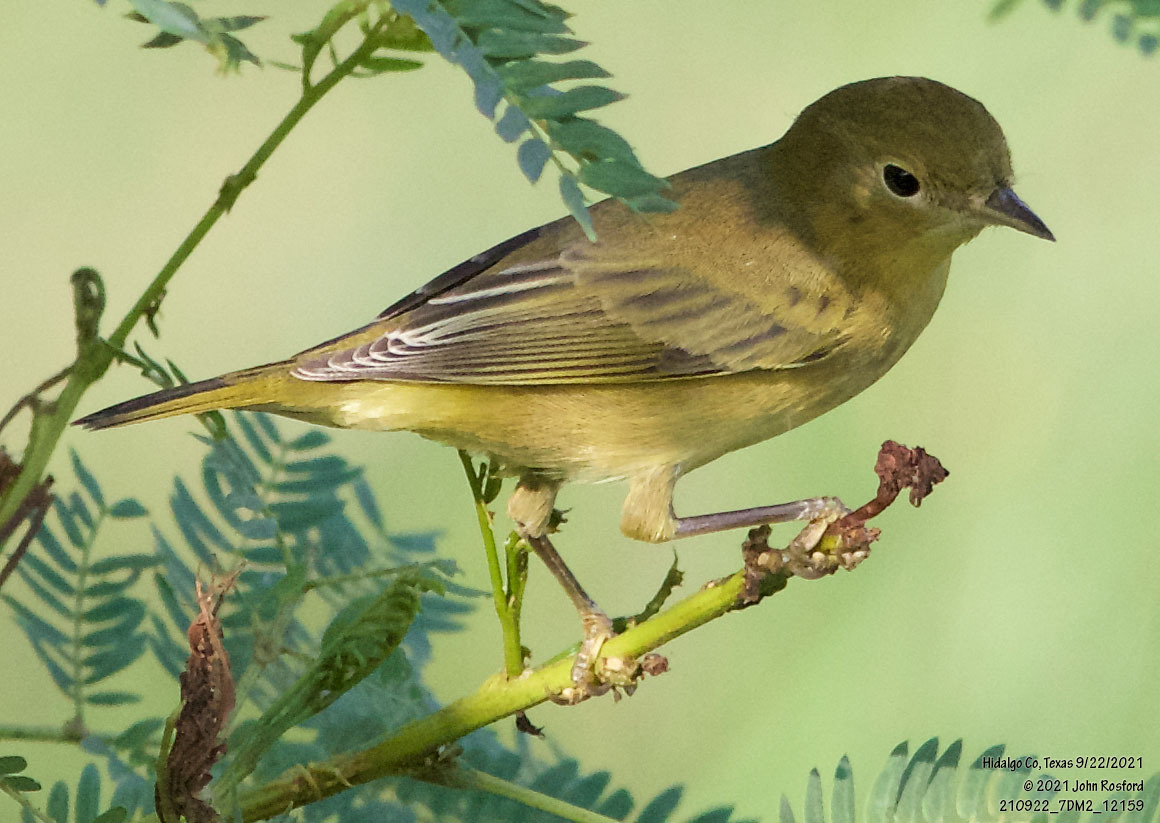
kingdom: Animalia
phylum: Chordata
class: Aves
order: Passeriformes
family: Parulidae
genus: Setophaga
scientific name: Setophaga petechia
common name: Yellow warbler
